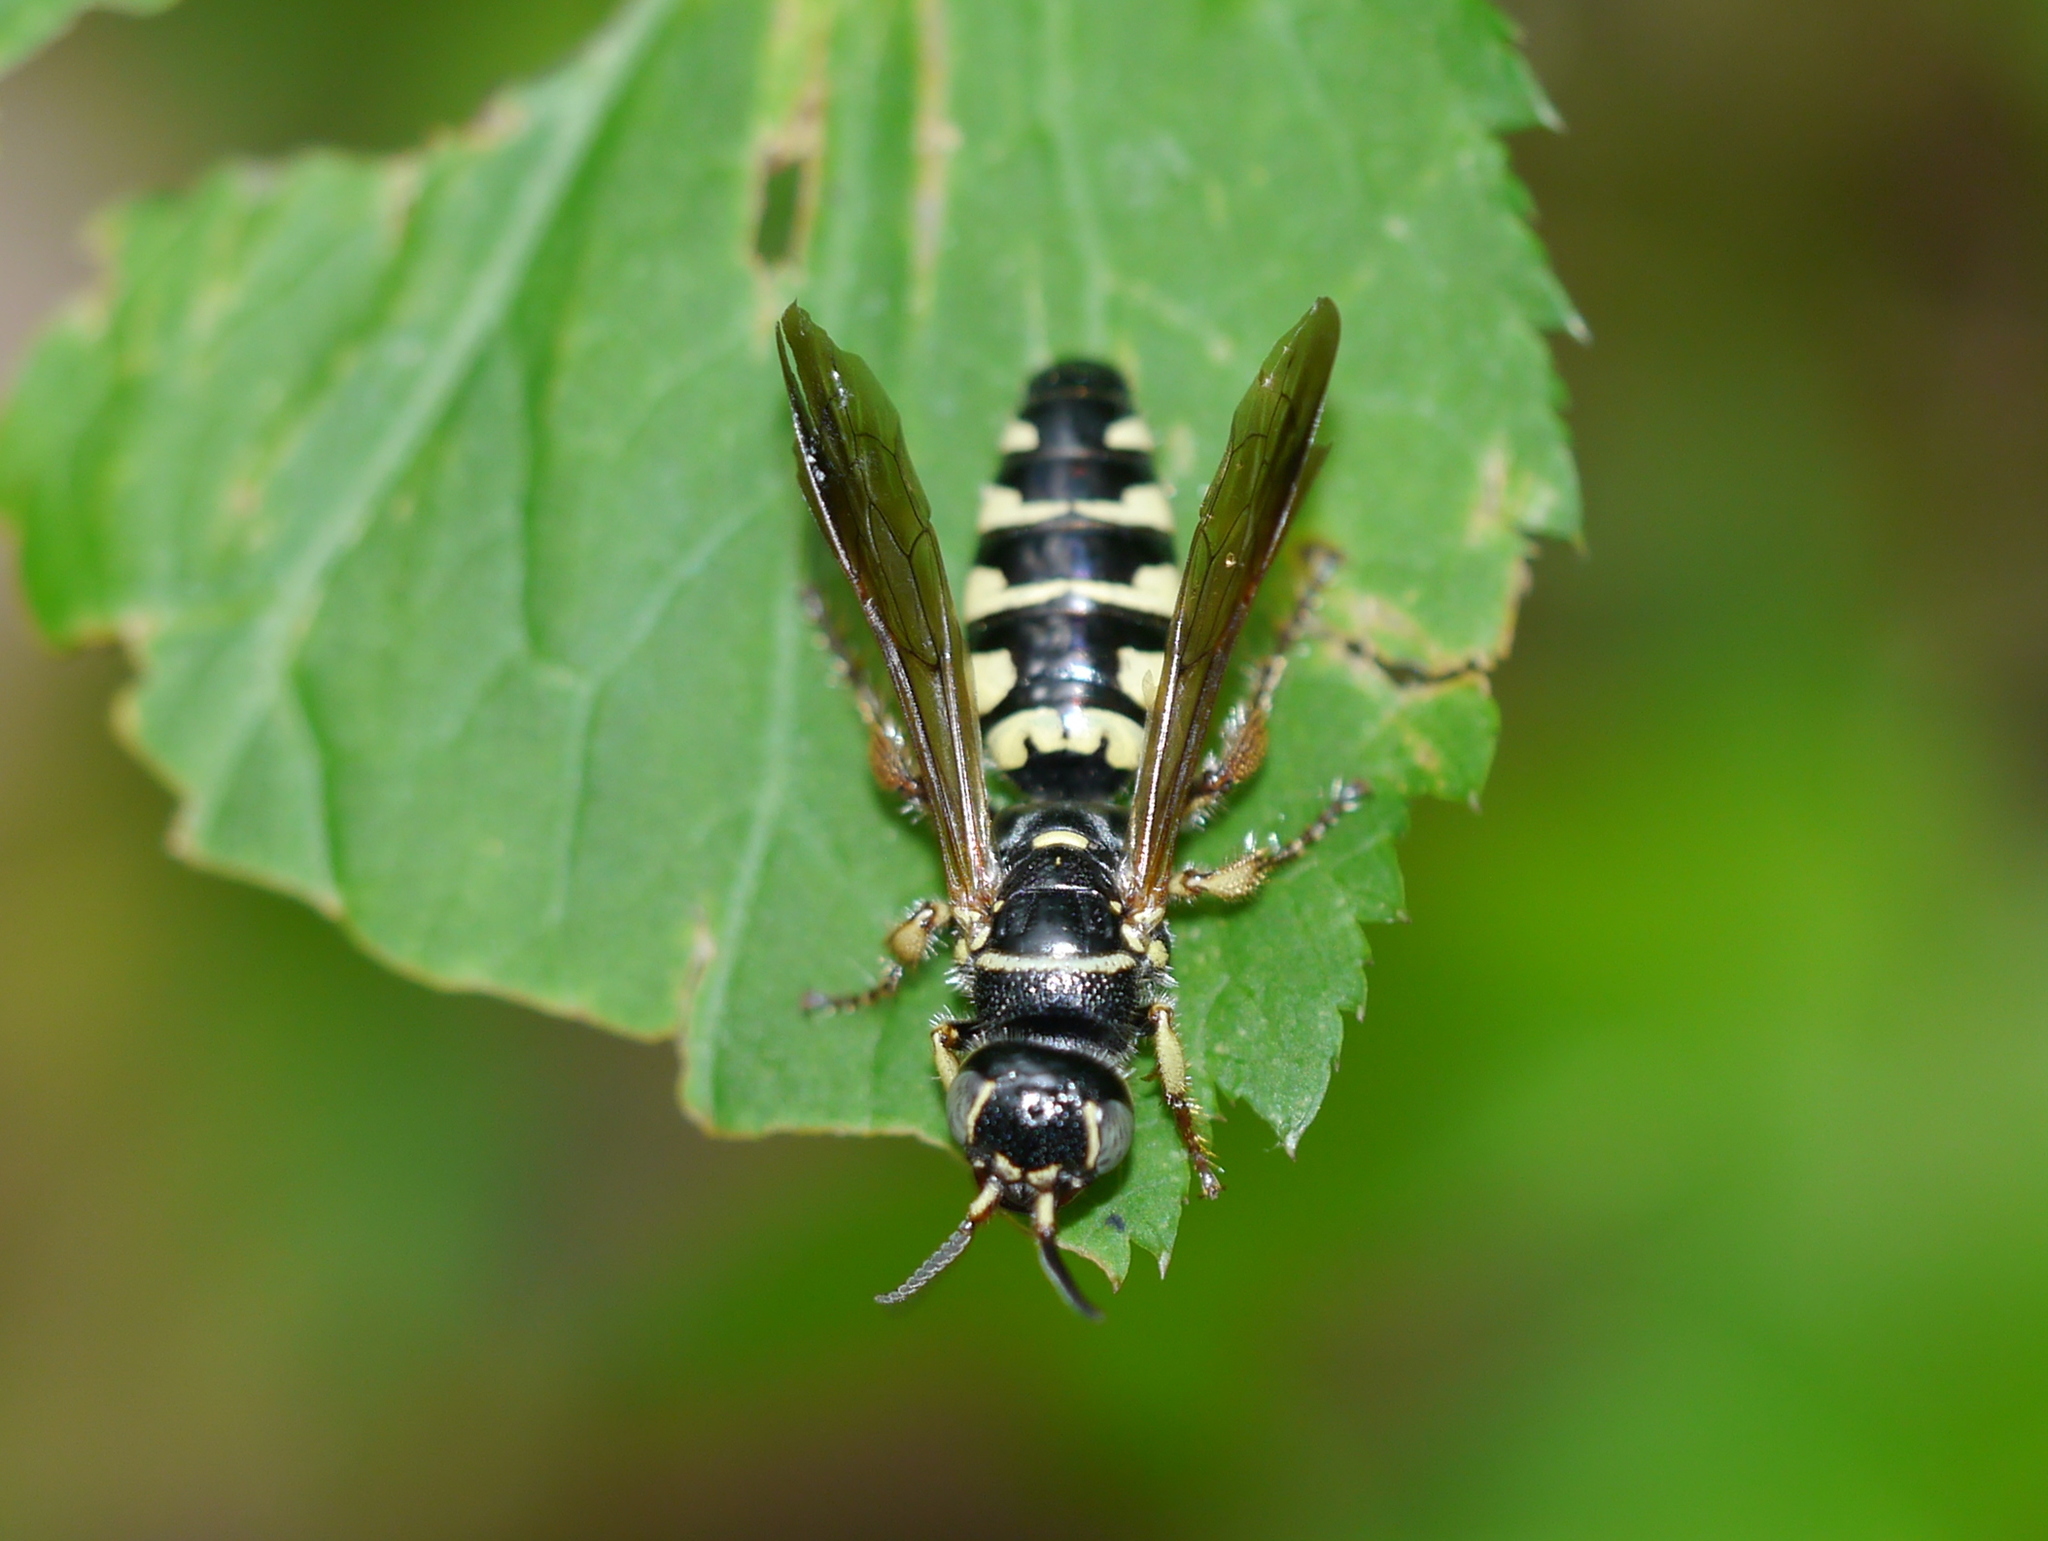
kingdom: Animalia
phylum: Arthropoda
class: Insecta
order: Hymenoptera
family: Tiphiidae
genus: Myzinum
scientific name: Myzinum
